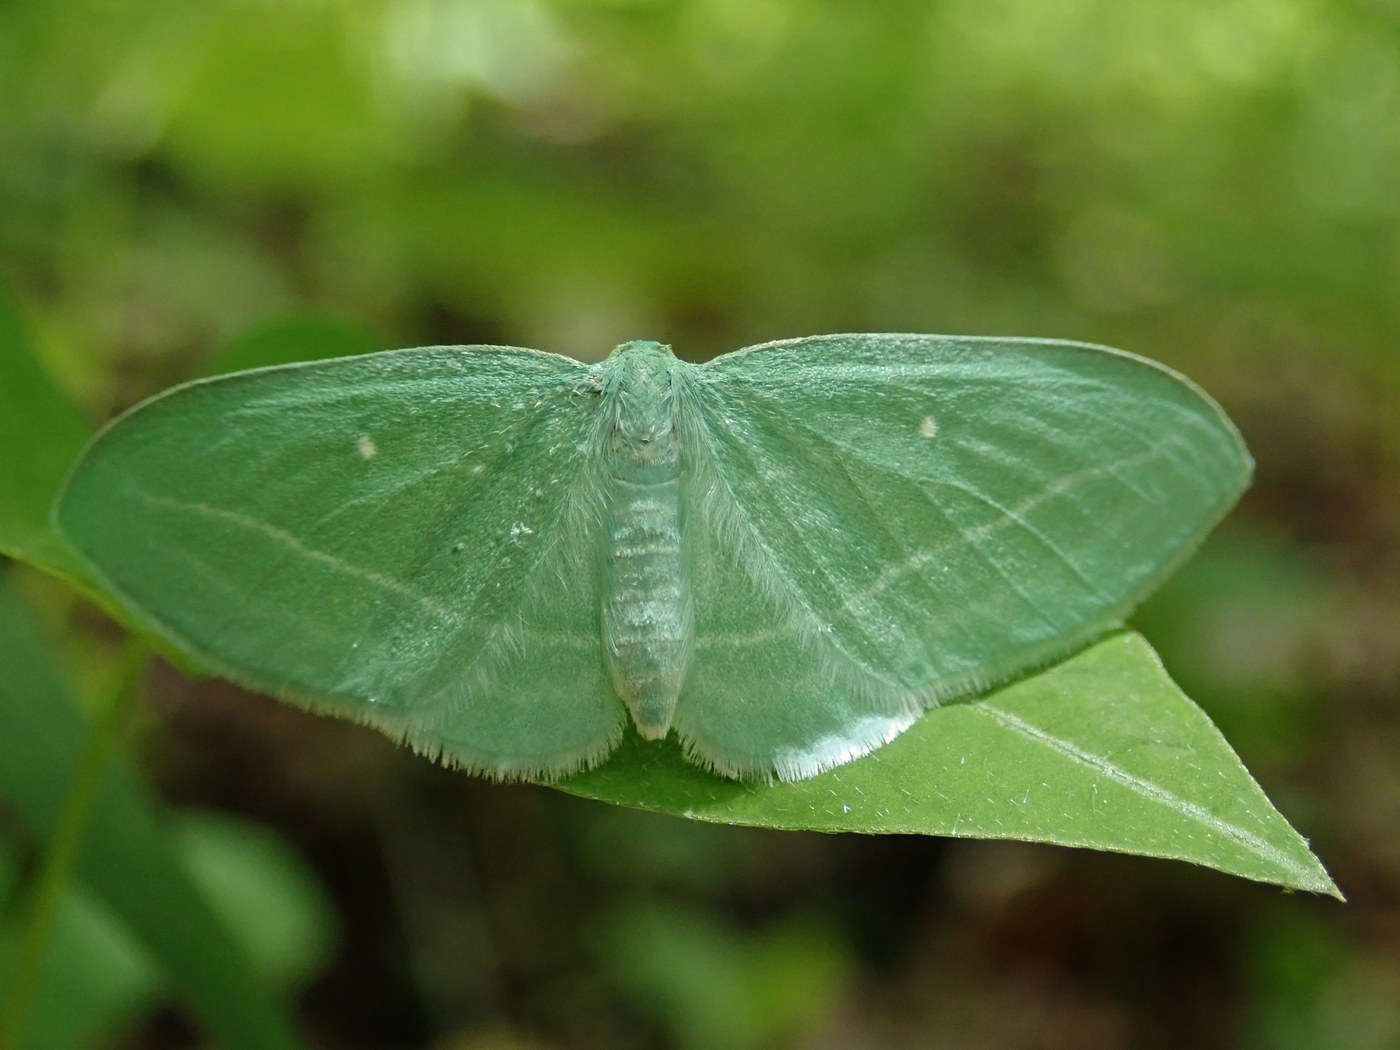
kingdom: Animalia
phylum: Arthropoda
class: Insecta
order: Lepidoptera
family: Geometridae
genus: Dyspteris
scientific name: Dyspteris abortivaria
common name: Bad-wing
